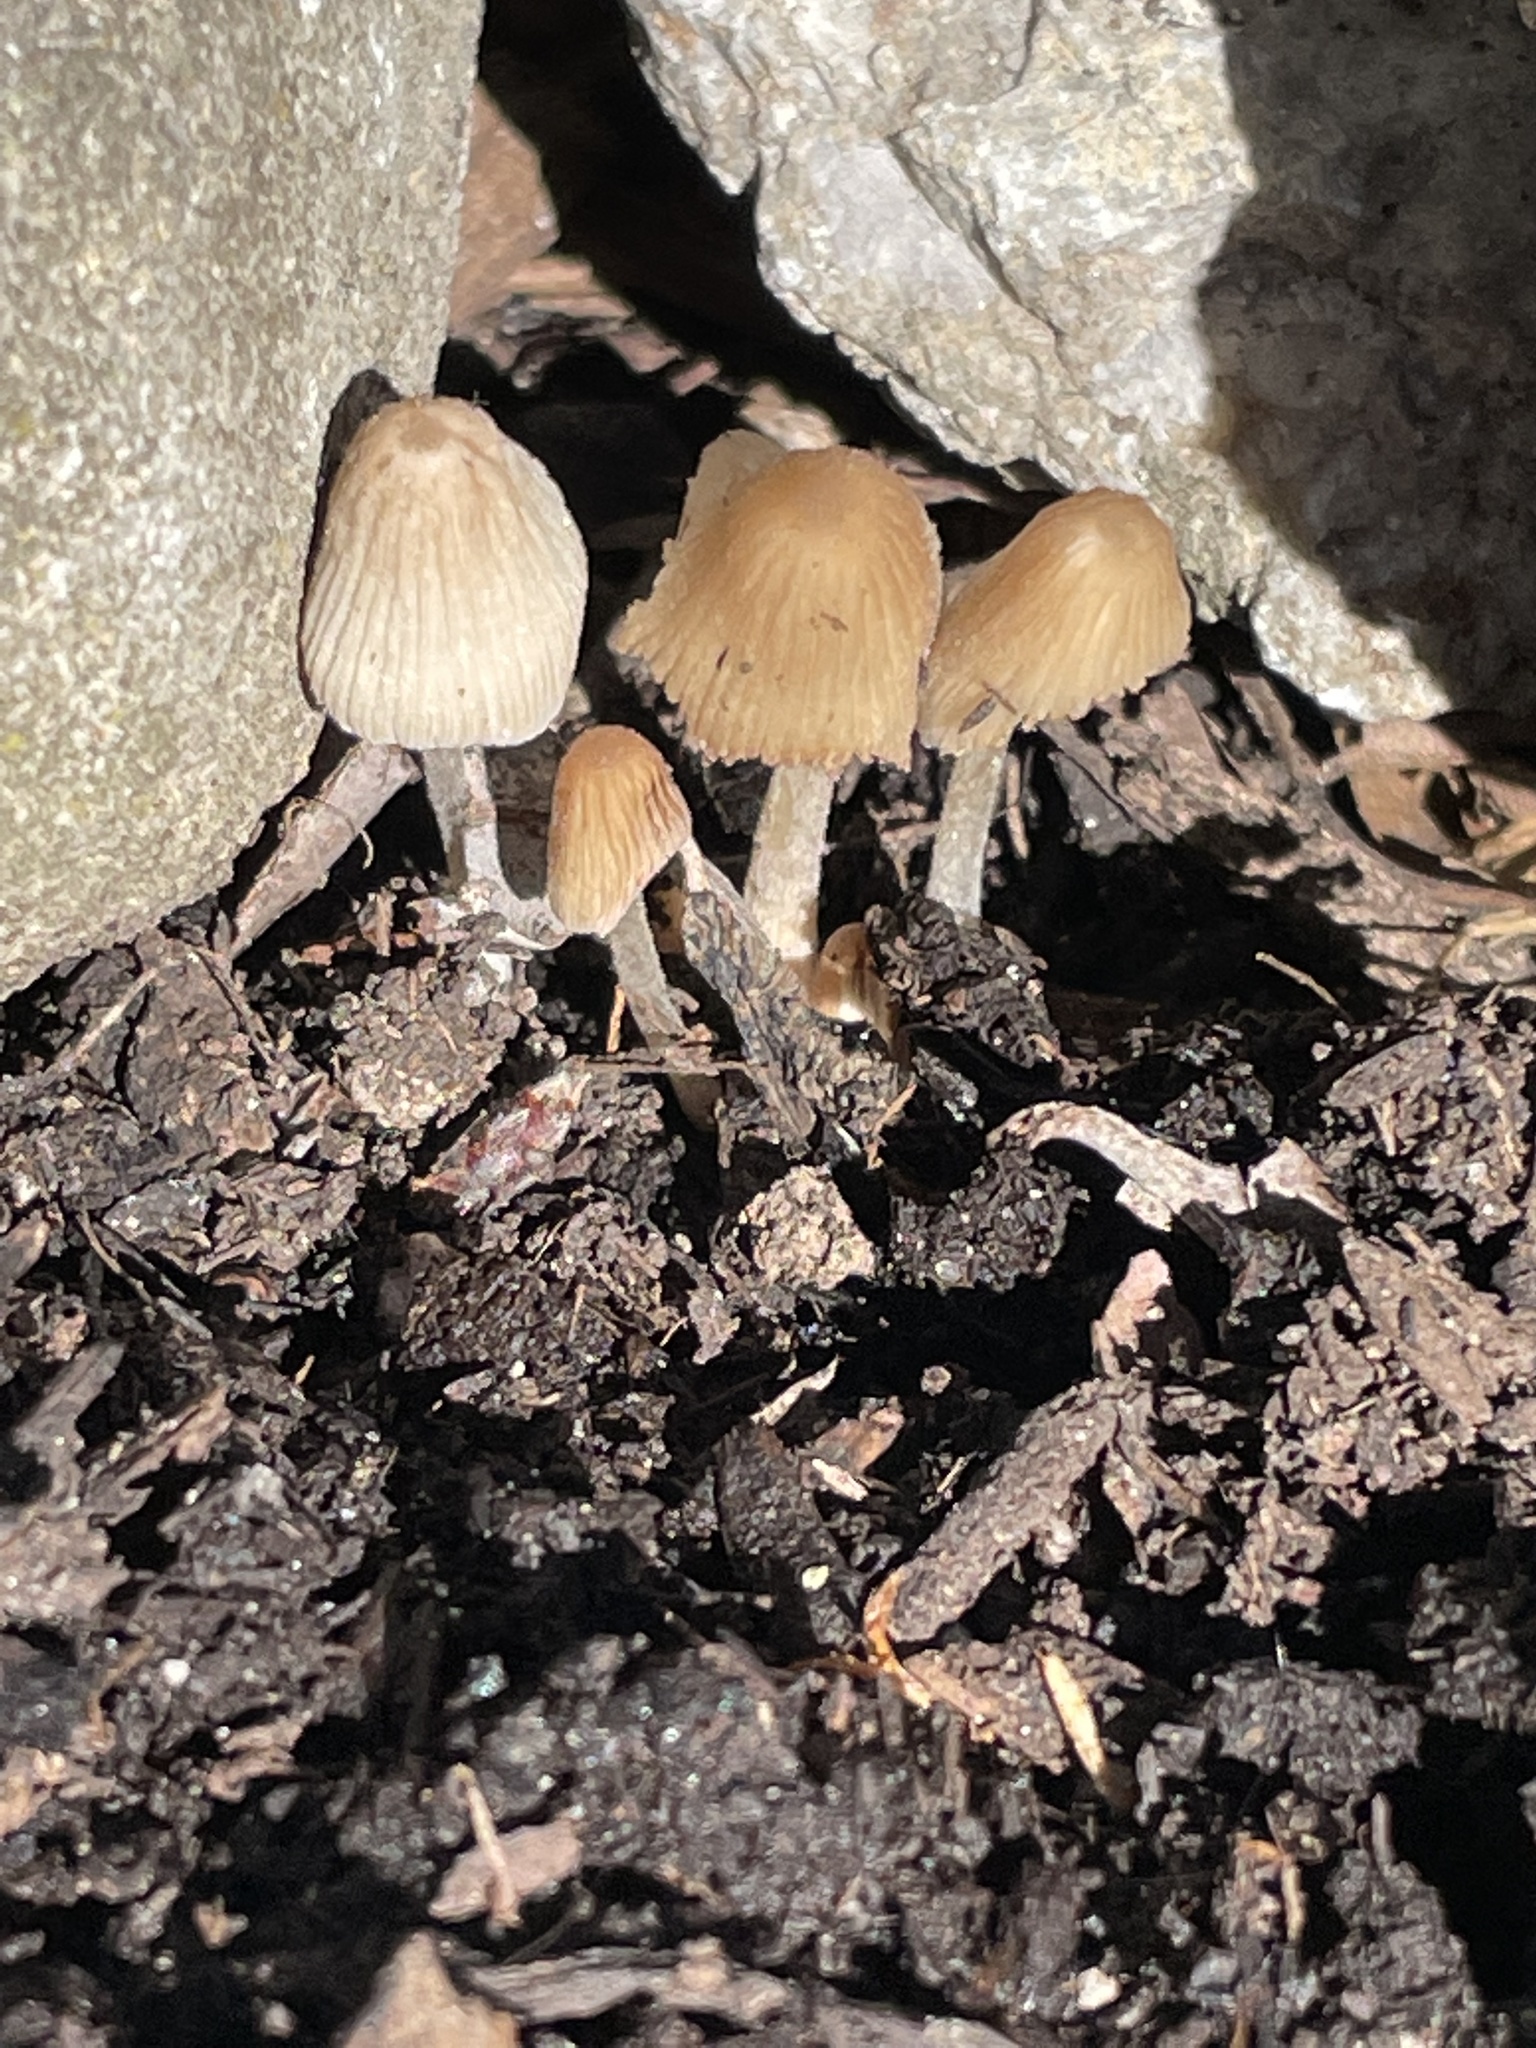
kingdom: Fungi
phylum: Basidiomycota
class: Agaricomycetes
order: Agaricales
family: Psathyrellaceae
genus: Coprinellus
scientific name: Coprinellus micaceus
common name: Glistening ink-cap
